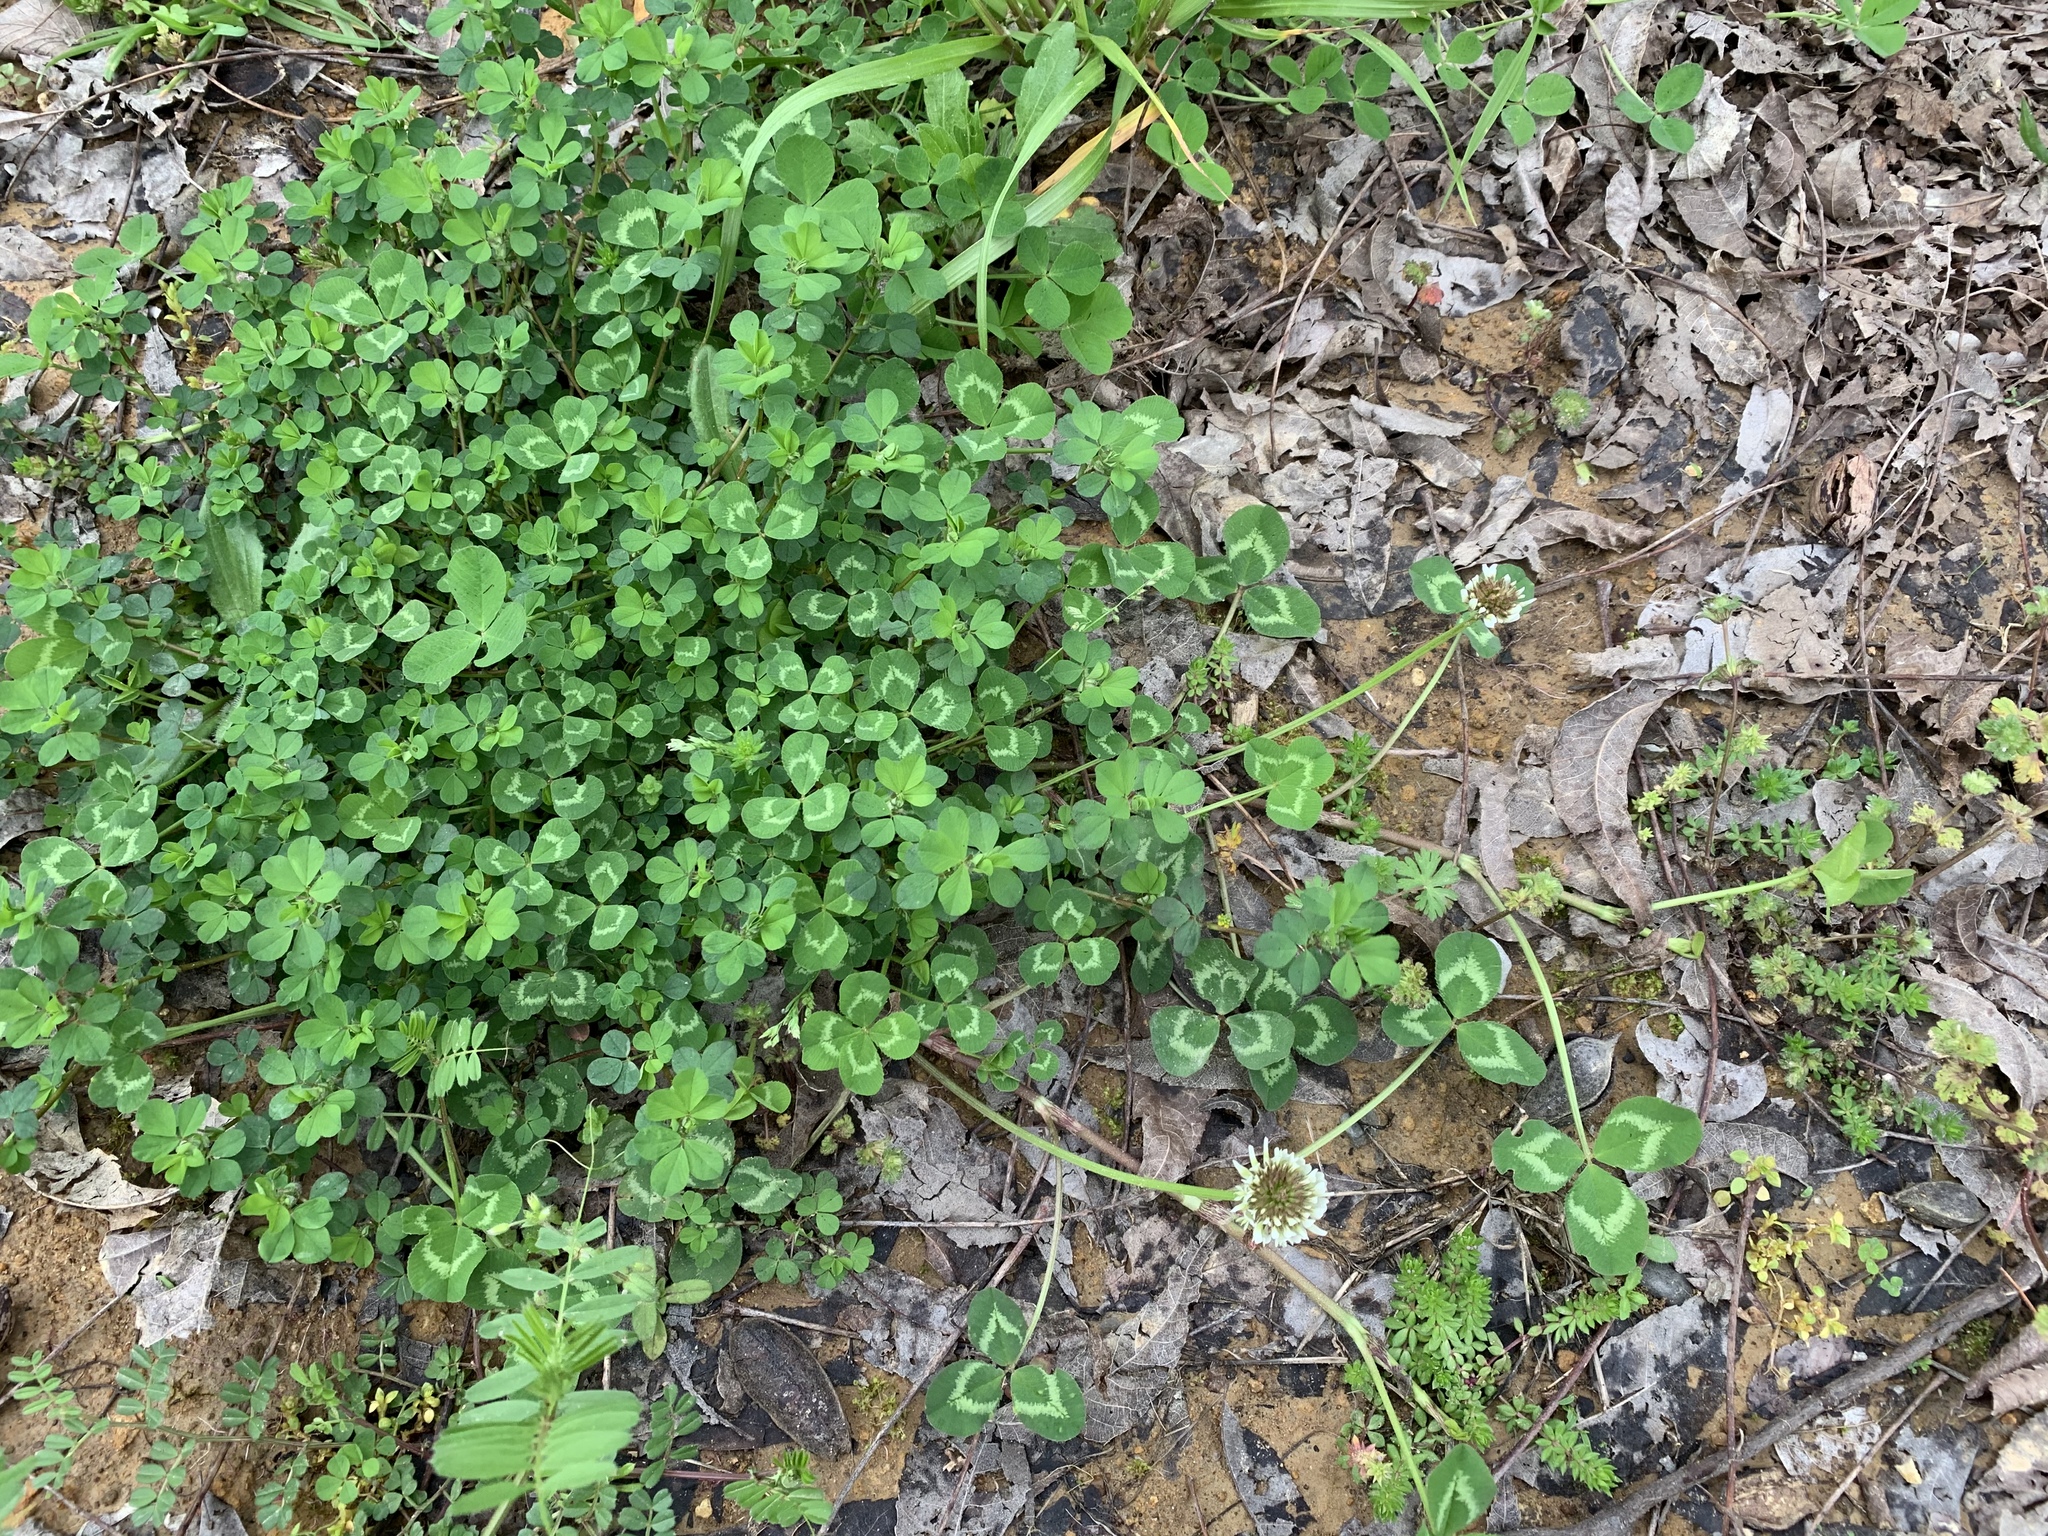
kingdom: Plantae
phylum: Tracheophyta
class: Magnoliopsida
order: Fabales
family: Fabaceae
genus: Trifolium
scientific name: Trifolium repens
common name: White clover
